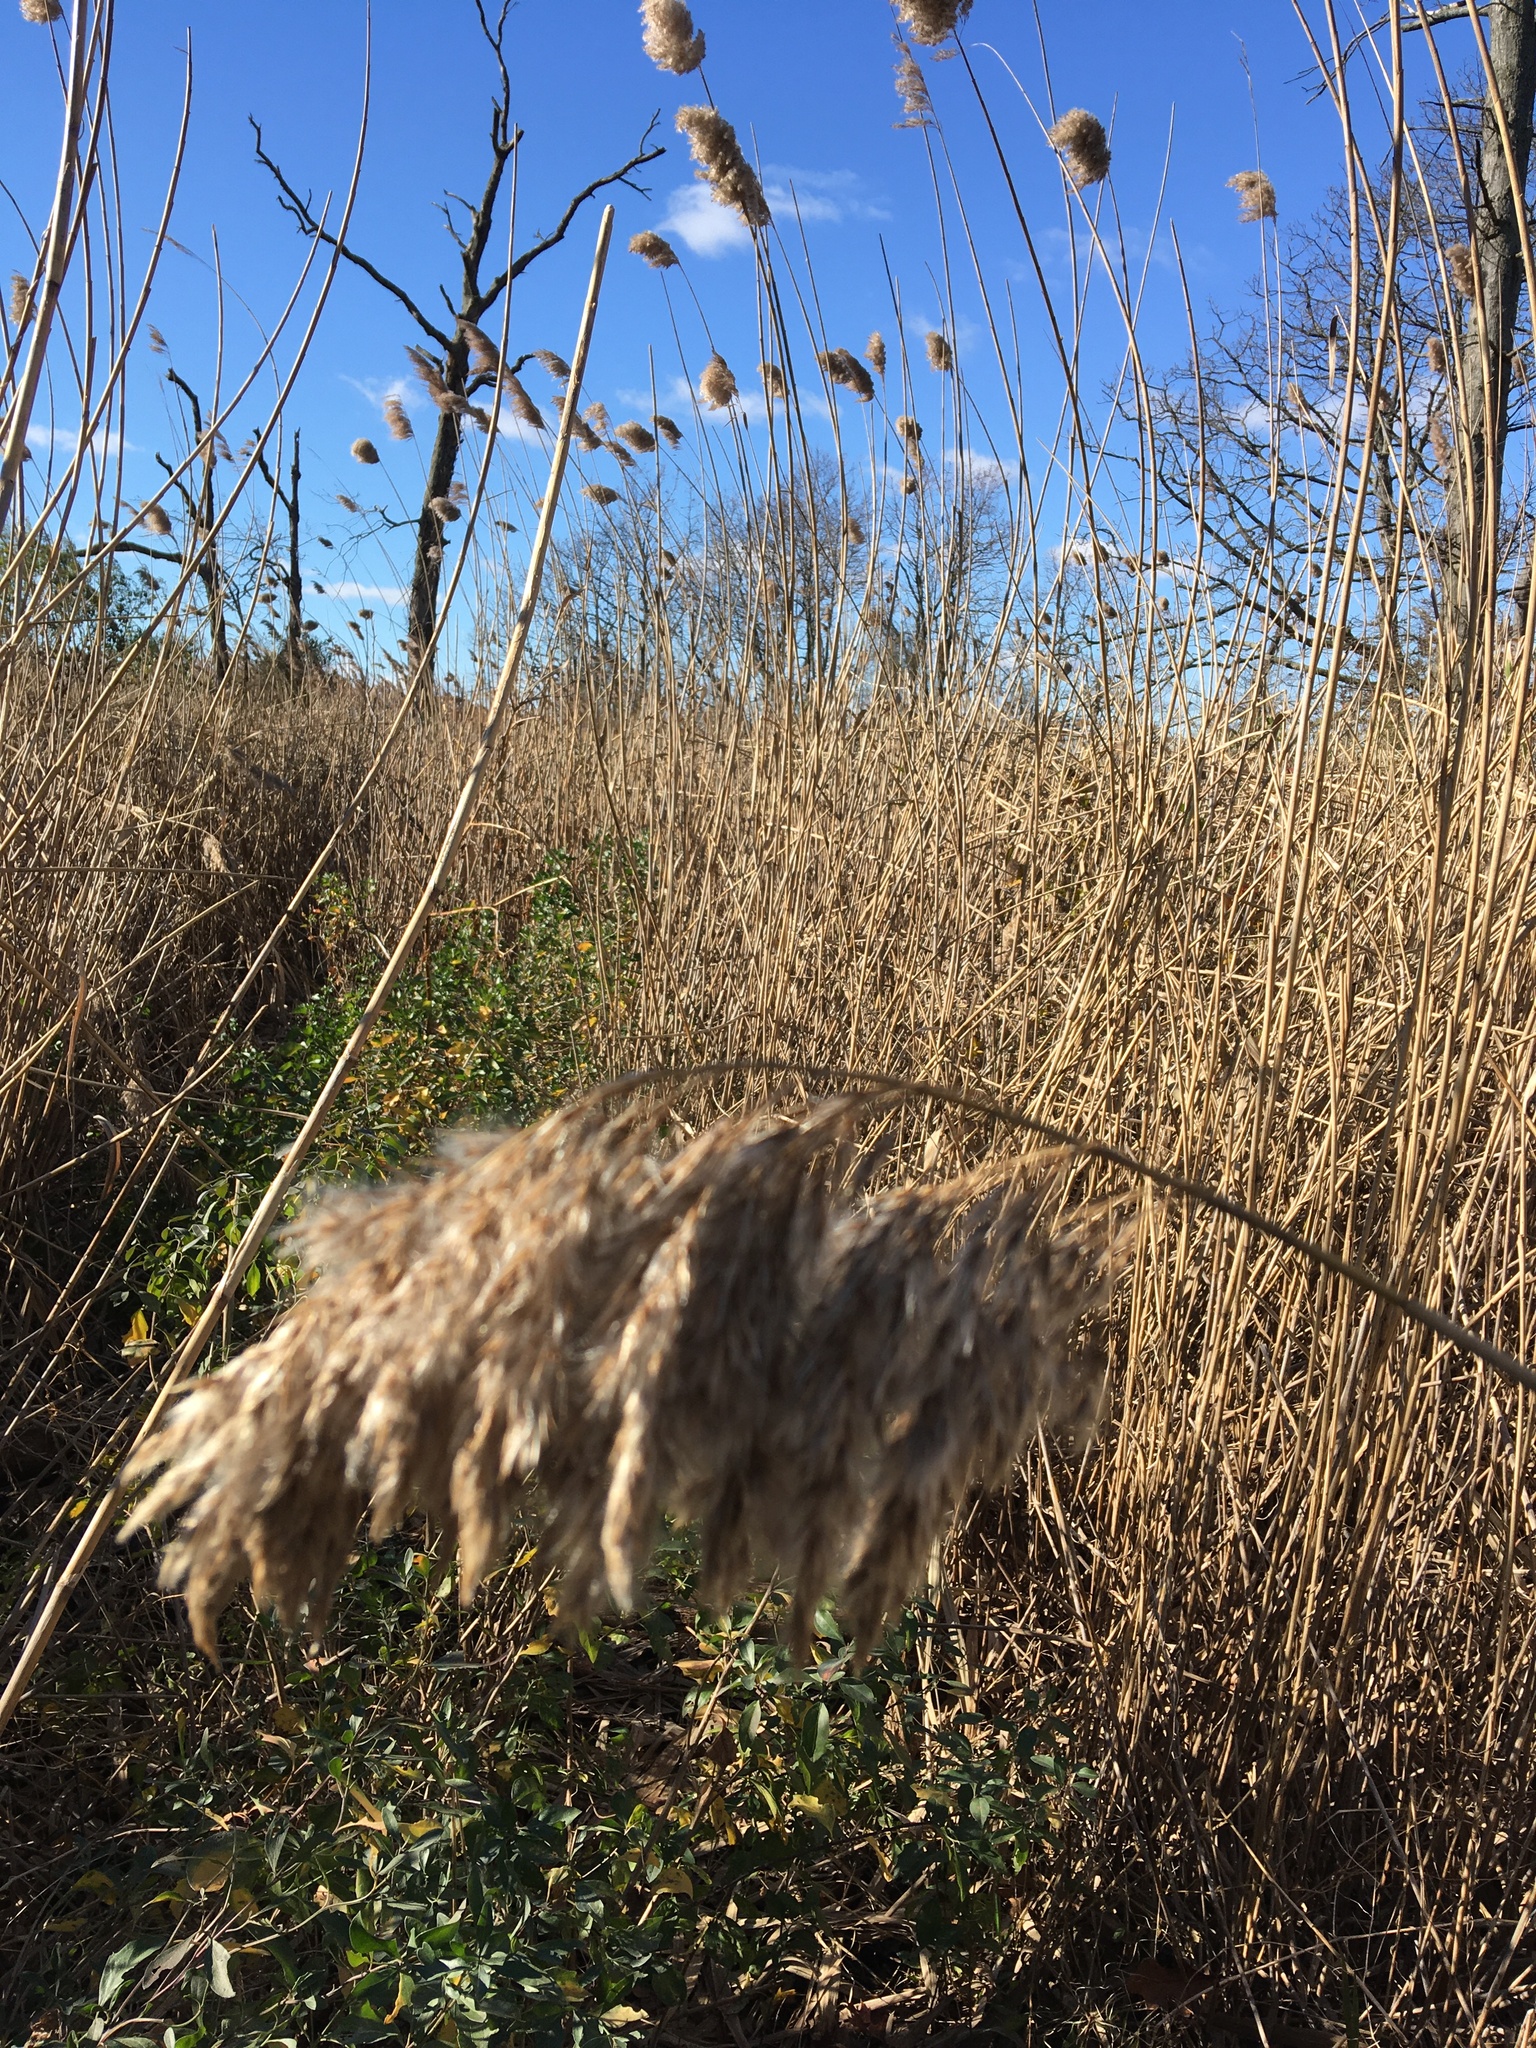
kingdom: Plantae
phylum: Tracheophyta
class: Liliopsida
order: Poales
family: Poaceae
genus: Phragmites
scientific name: Phragmites australis
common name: Common reed
